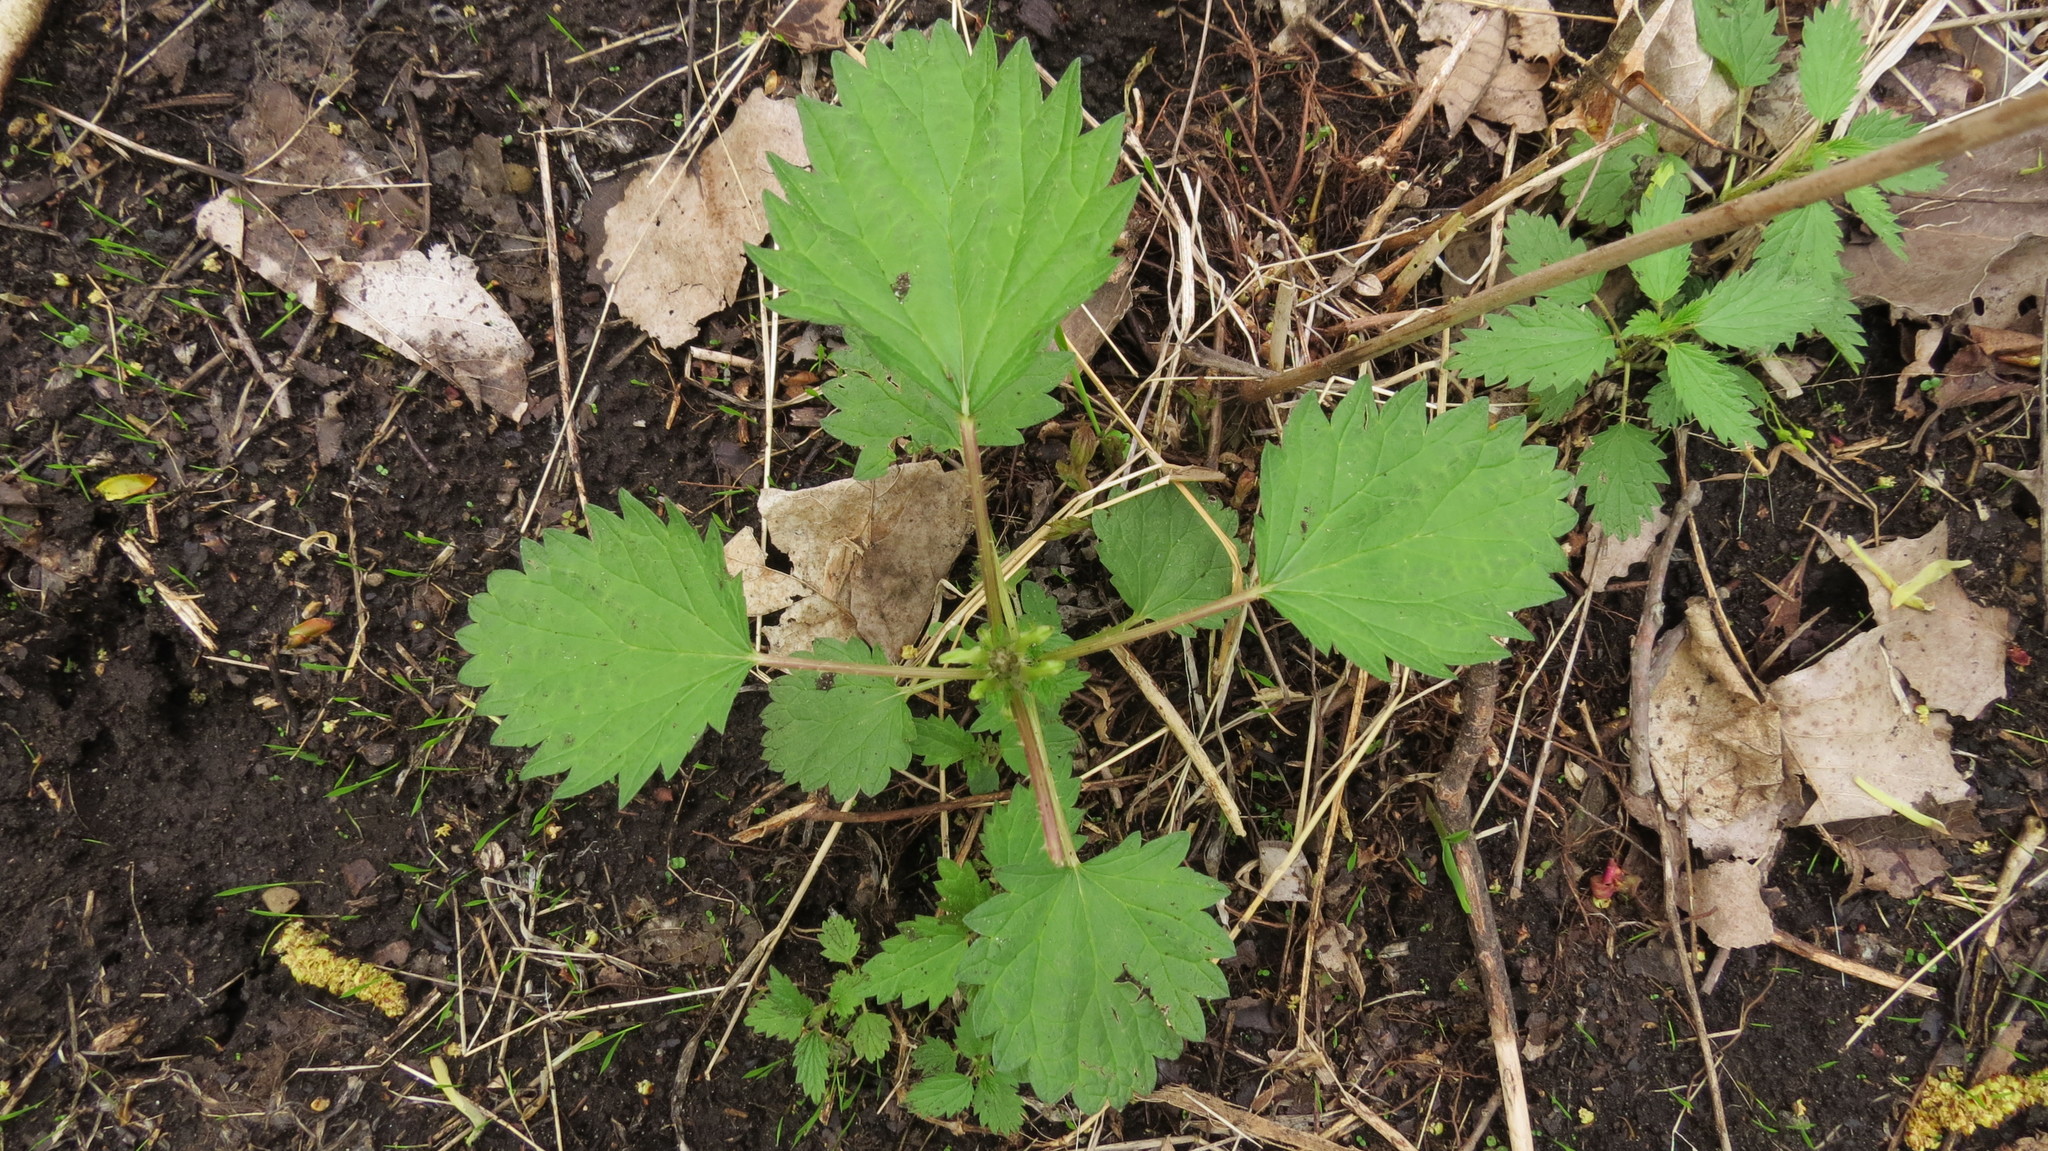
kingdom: Plantae
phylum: Tracheophyta
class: Magnoliopsida
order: Rosales
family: Urticaceae
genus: Urtica
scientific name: Urtica dioica
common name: Common nettle
